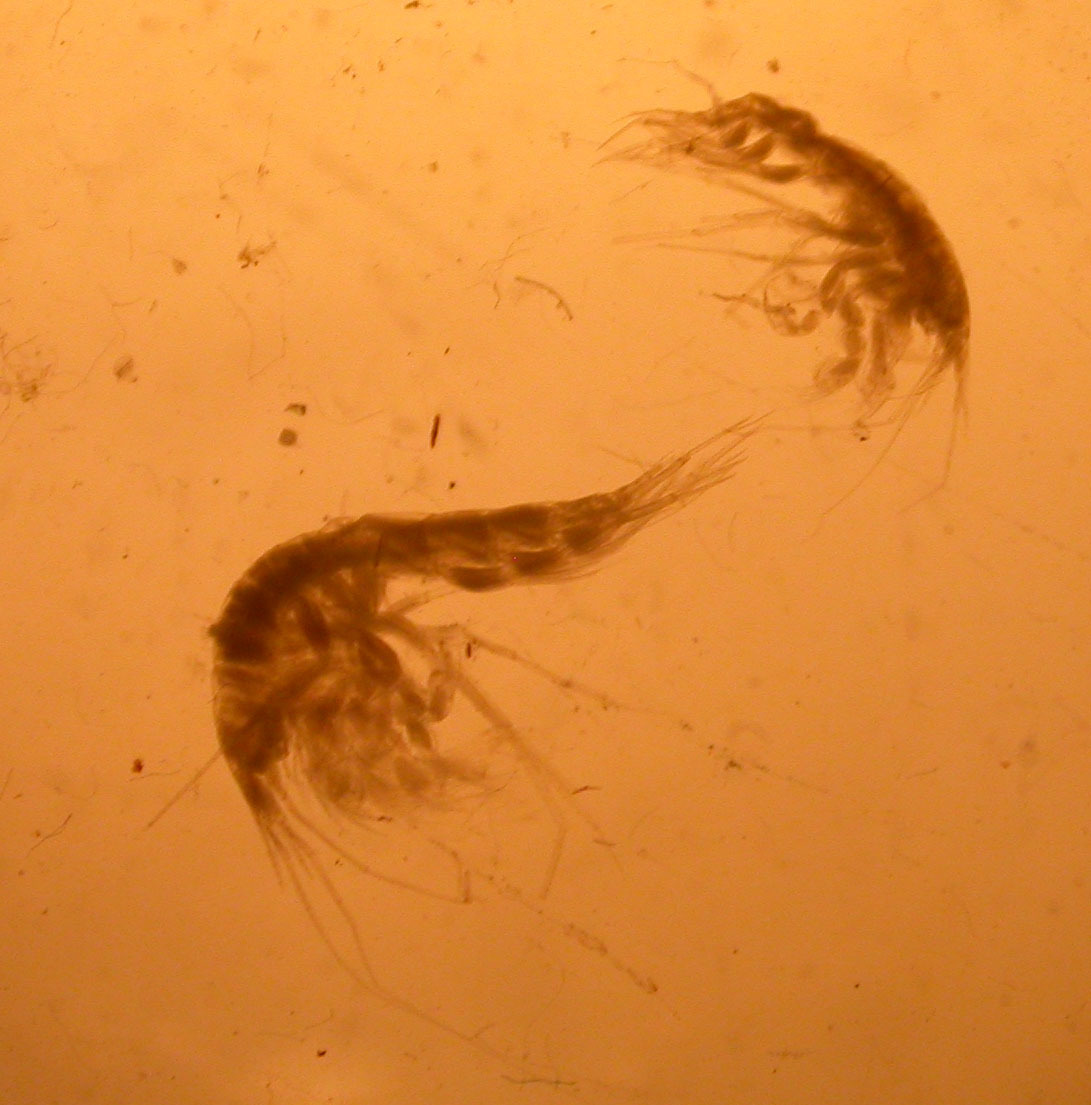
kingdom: Animalia
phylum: Arthropoda
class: Malacostraca
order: Amphipoda
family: Pardaliscidae
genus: Octomana
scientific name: Octomana hadromischa
